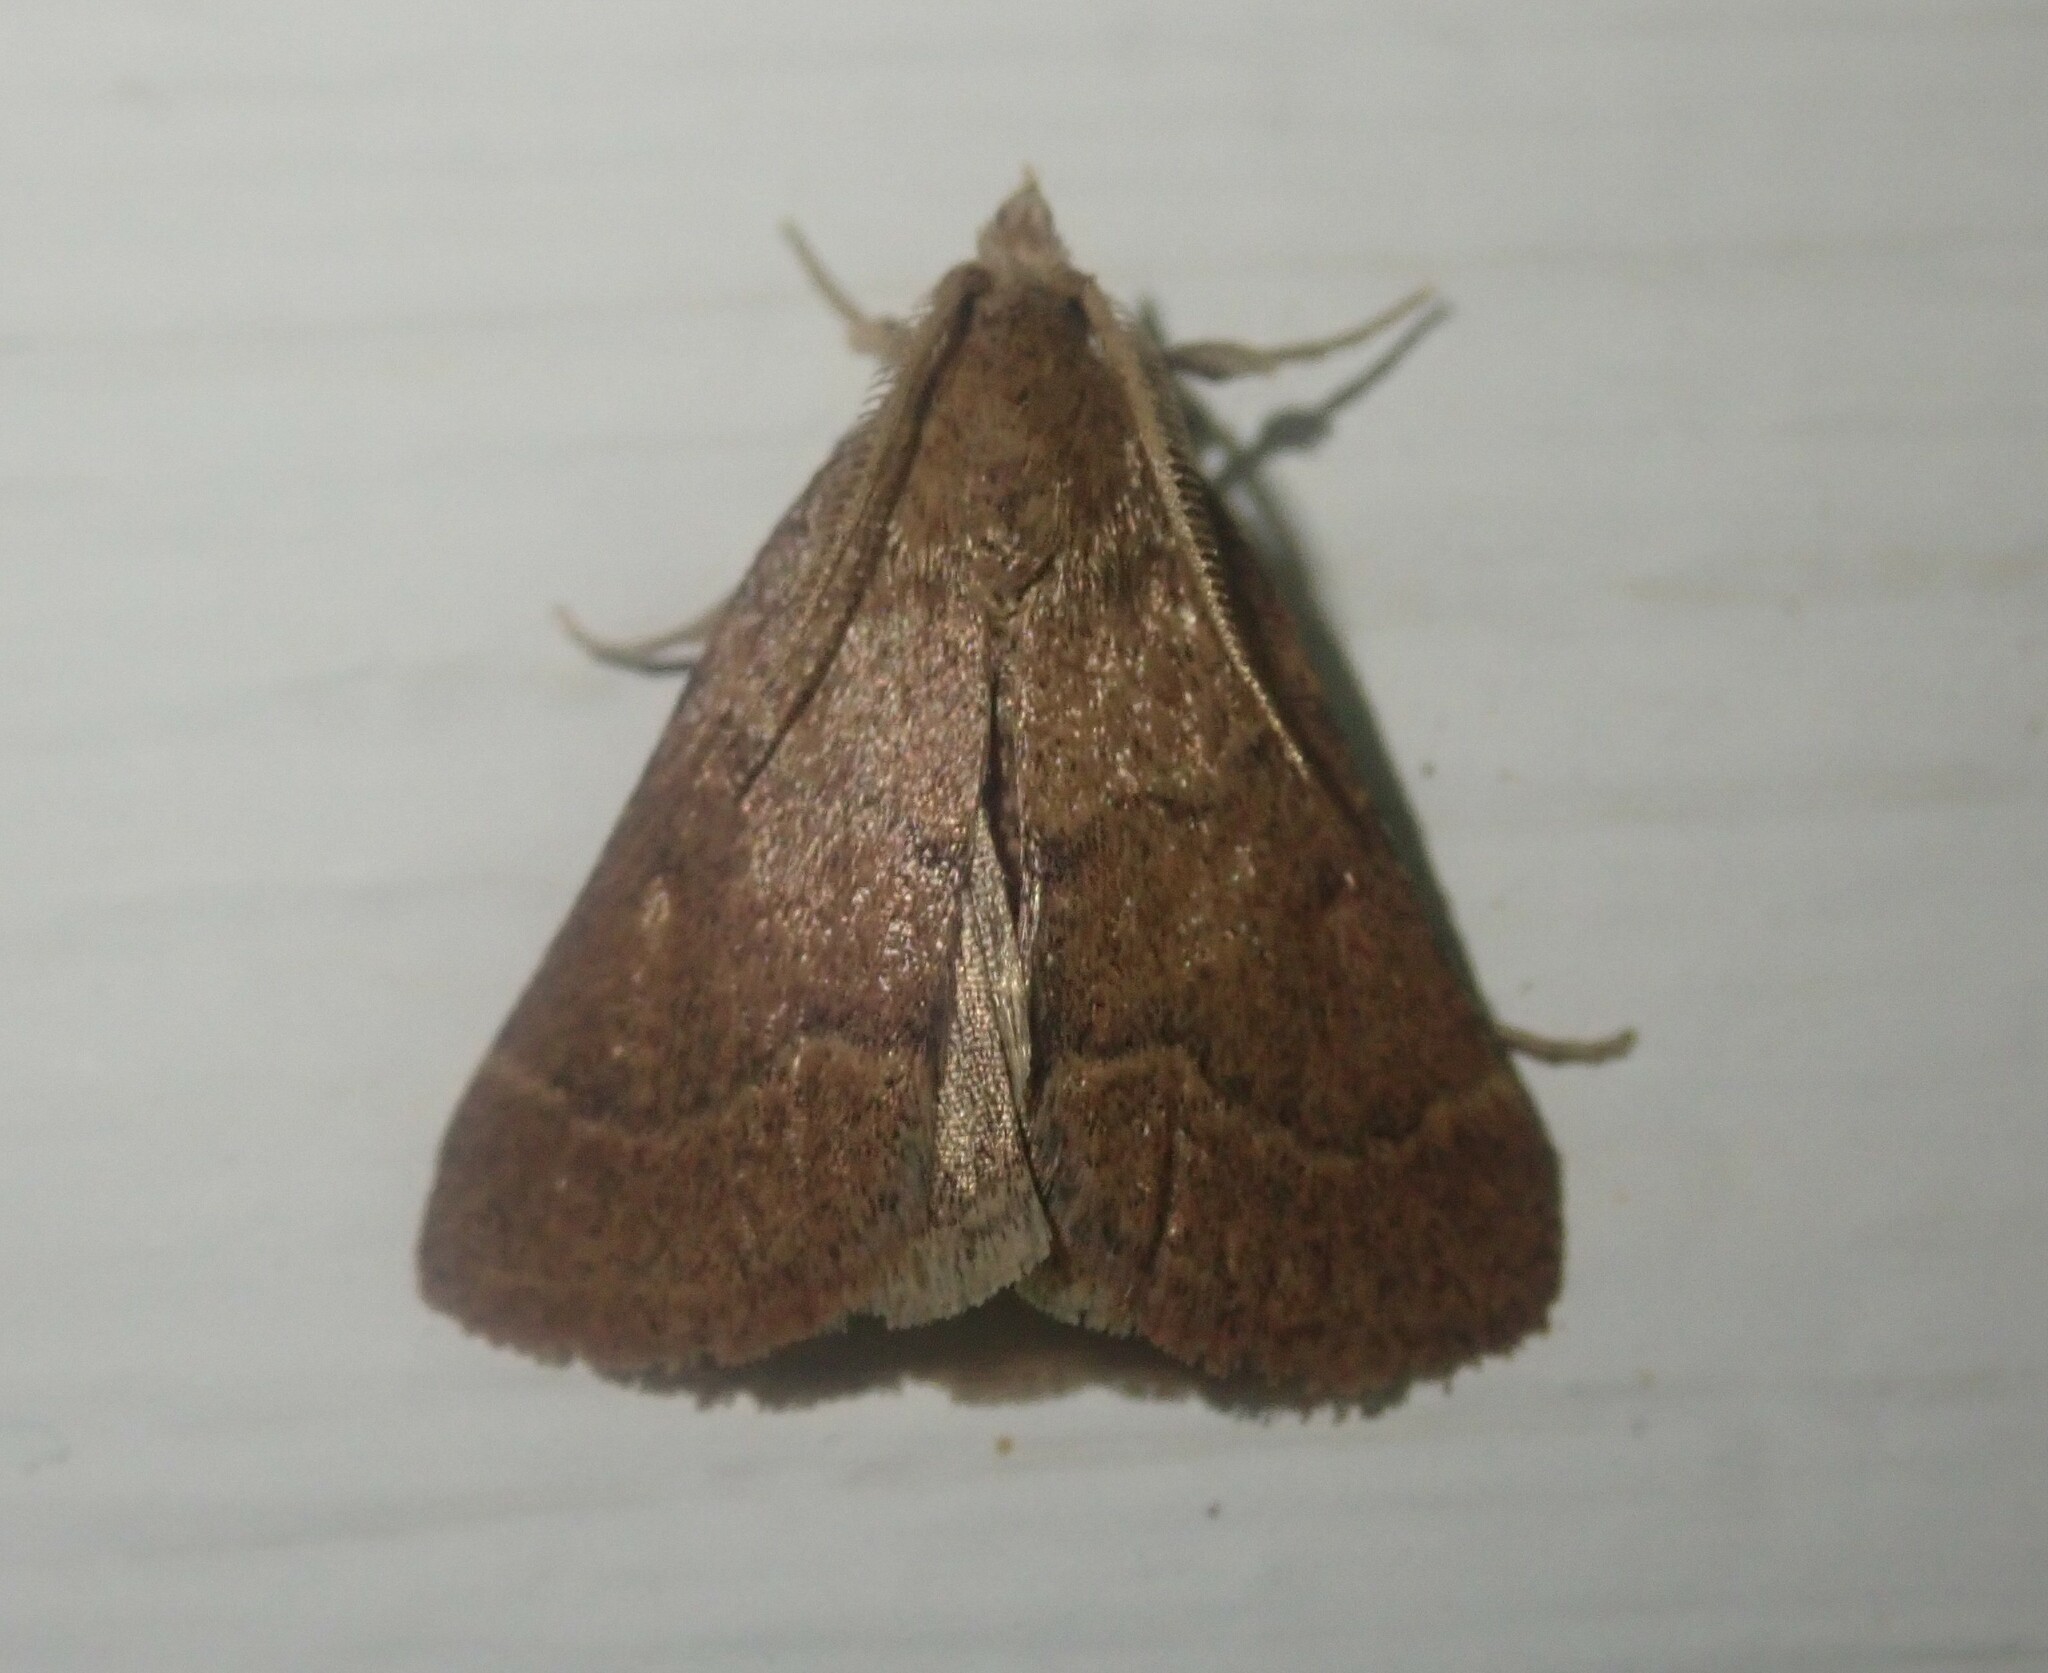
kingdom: Animalia
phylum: Arthropoda
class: Insecta
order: Lepidoptera
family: Erebidae
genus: Plecopterodes
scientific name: Plecopterodes moderata
